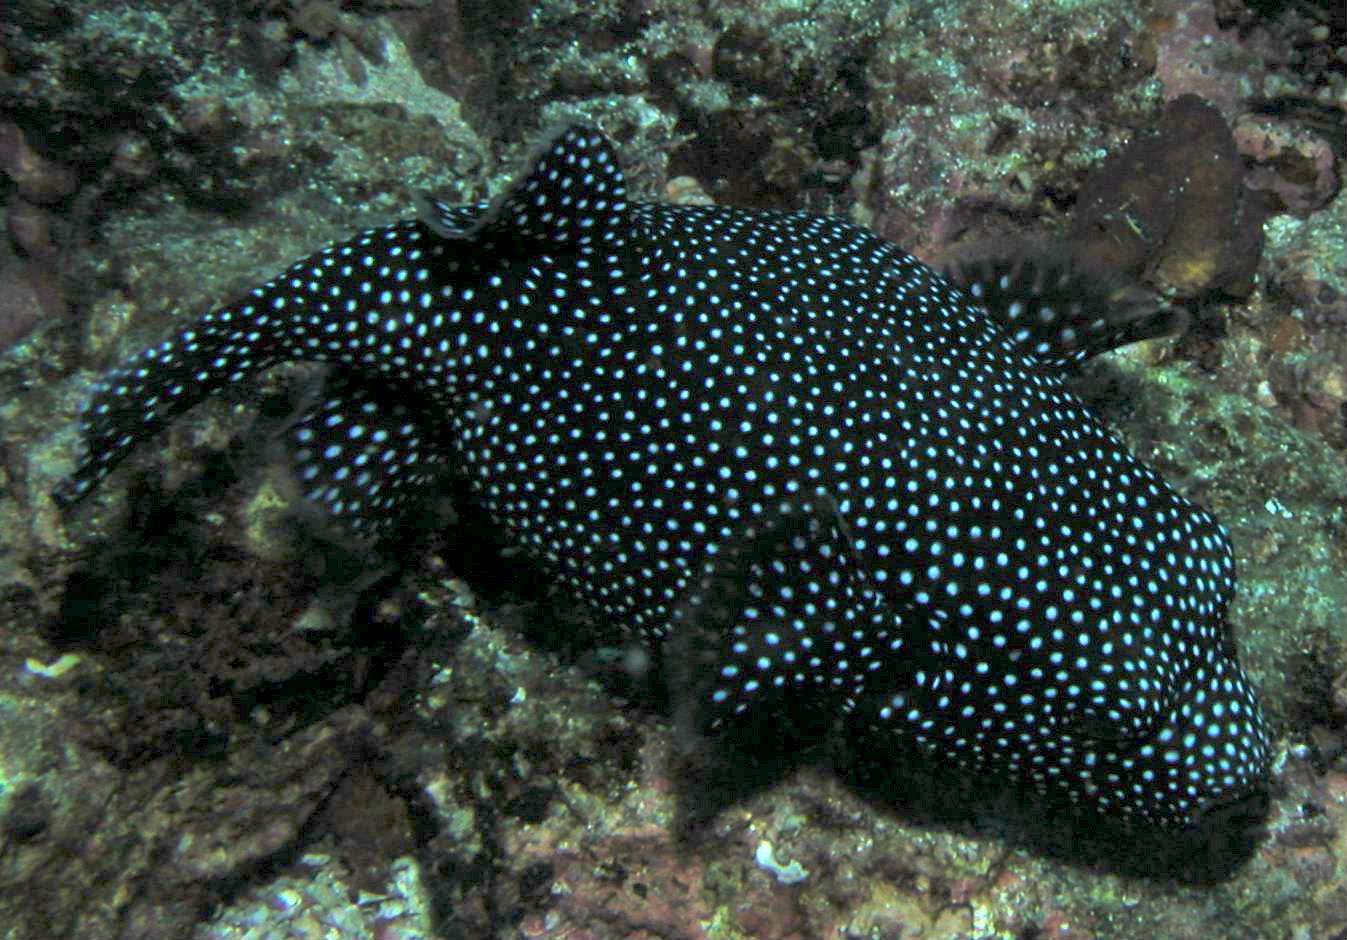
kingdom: Animalia
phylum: Chordata
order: Tetraodontiformes
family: Tetraodontidae
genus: Arothron
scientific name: Arothron meleagris
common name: Guinea-fowl pufferfish
